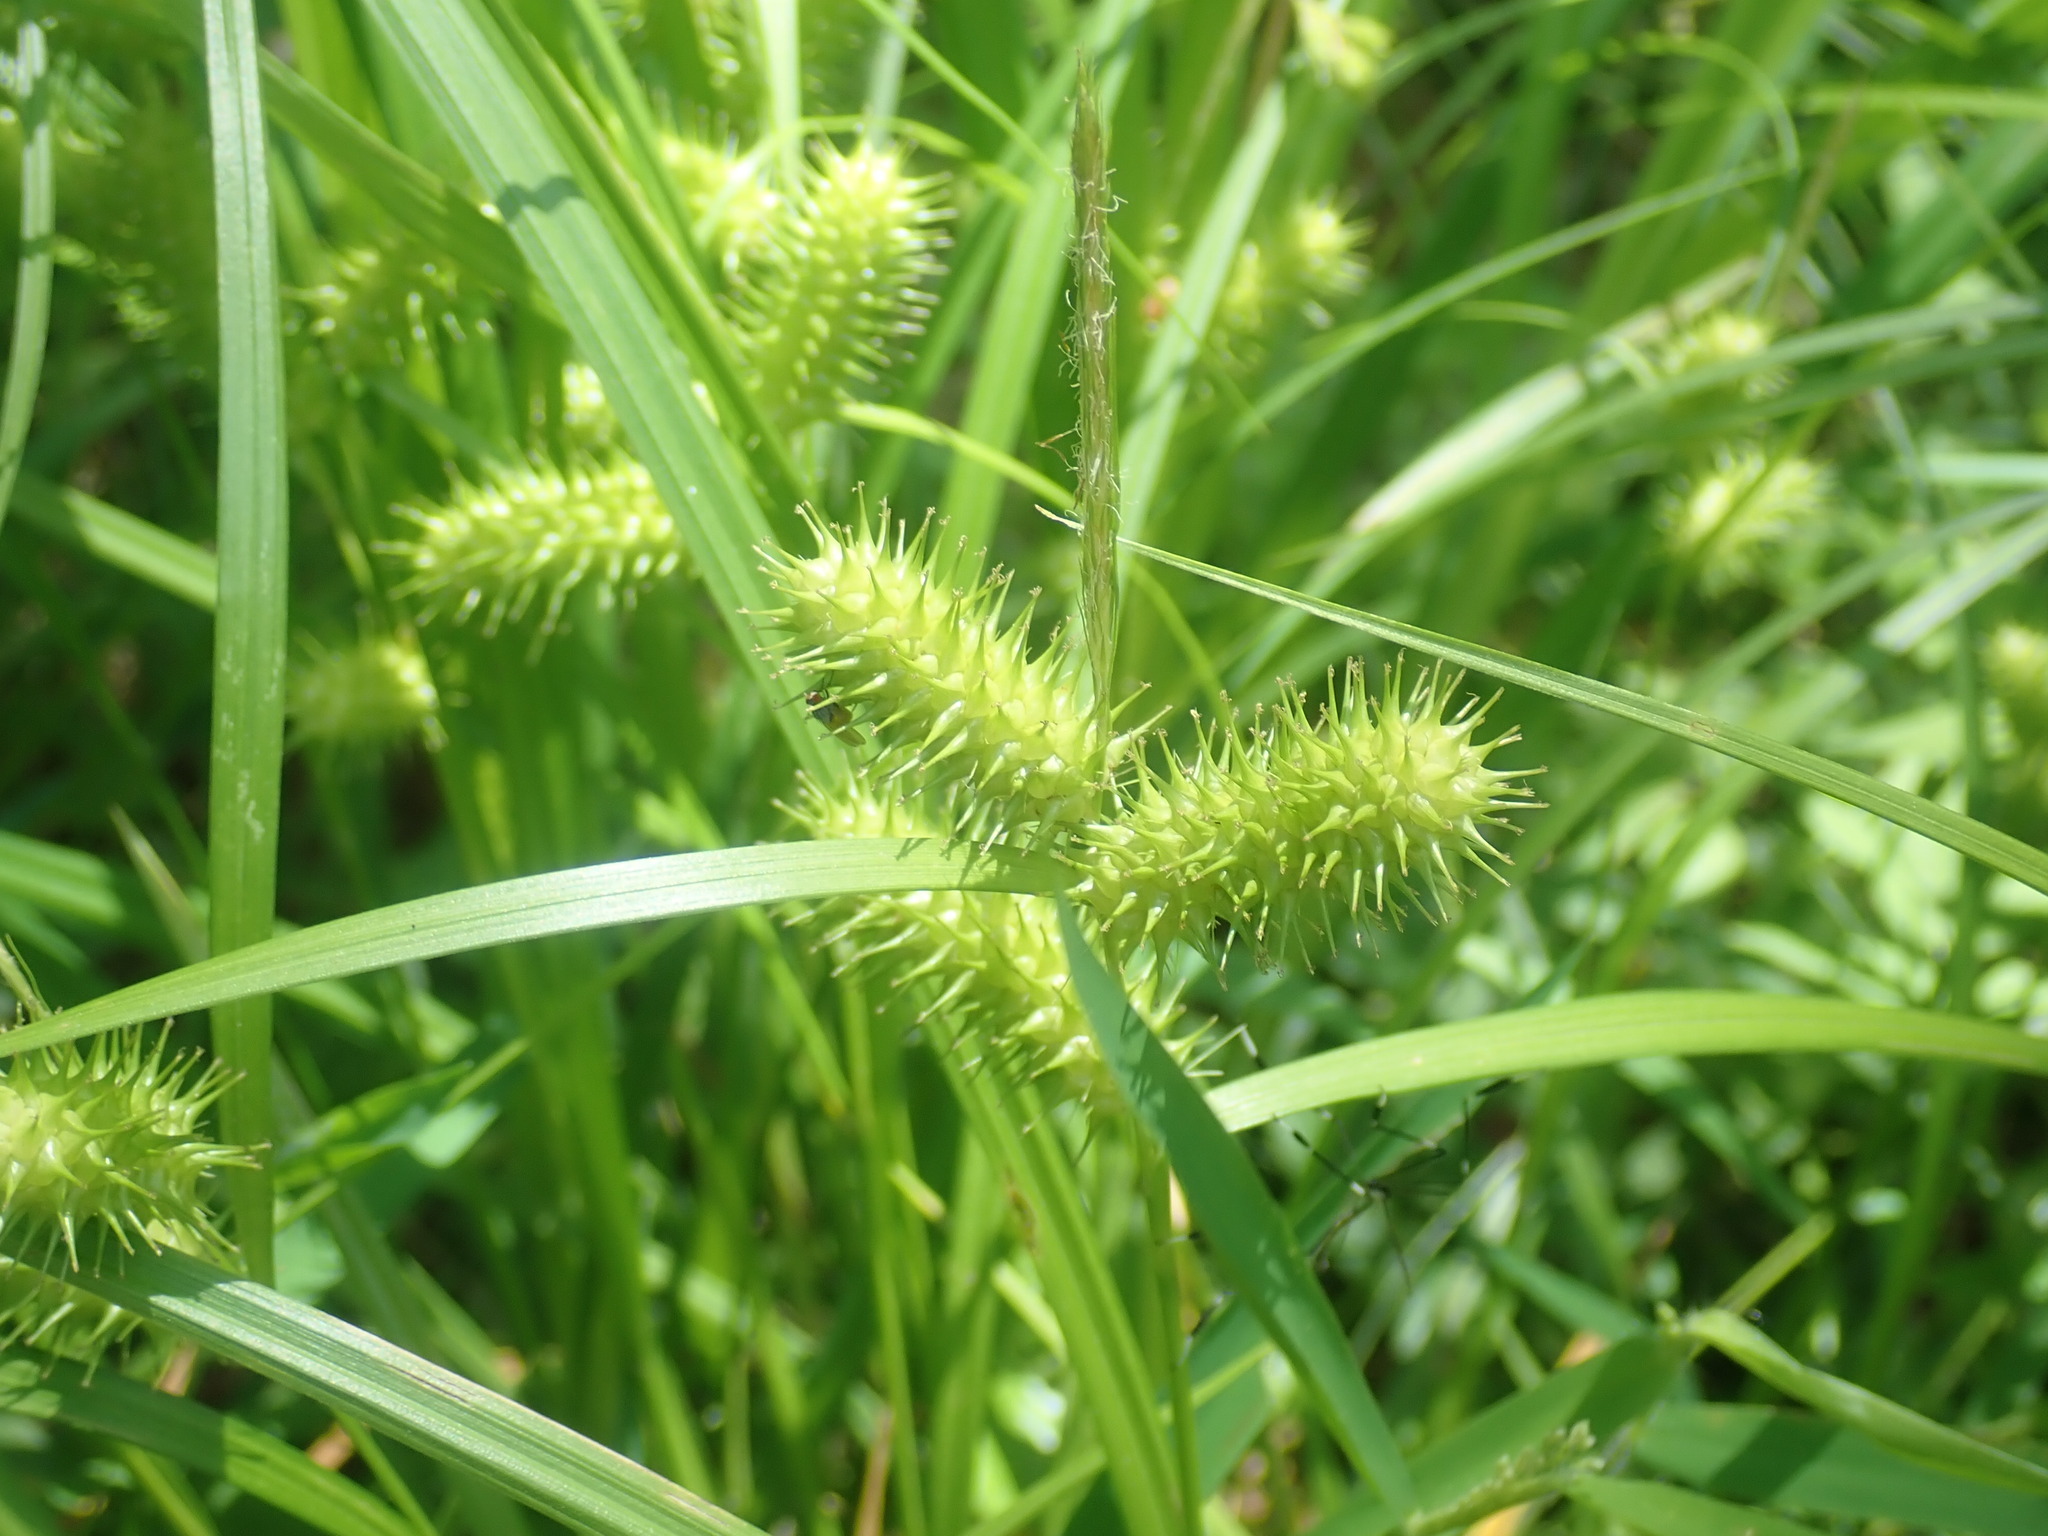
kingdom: Plantae
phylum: Tracheophyta
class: Liliopsida
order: Poales
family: Cyperaceae
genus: Carex
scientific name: Carex lurida
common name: Sallow sedge
